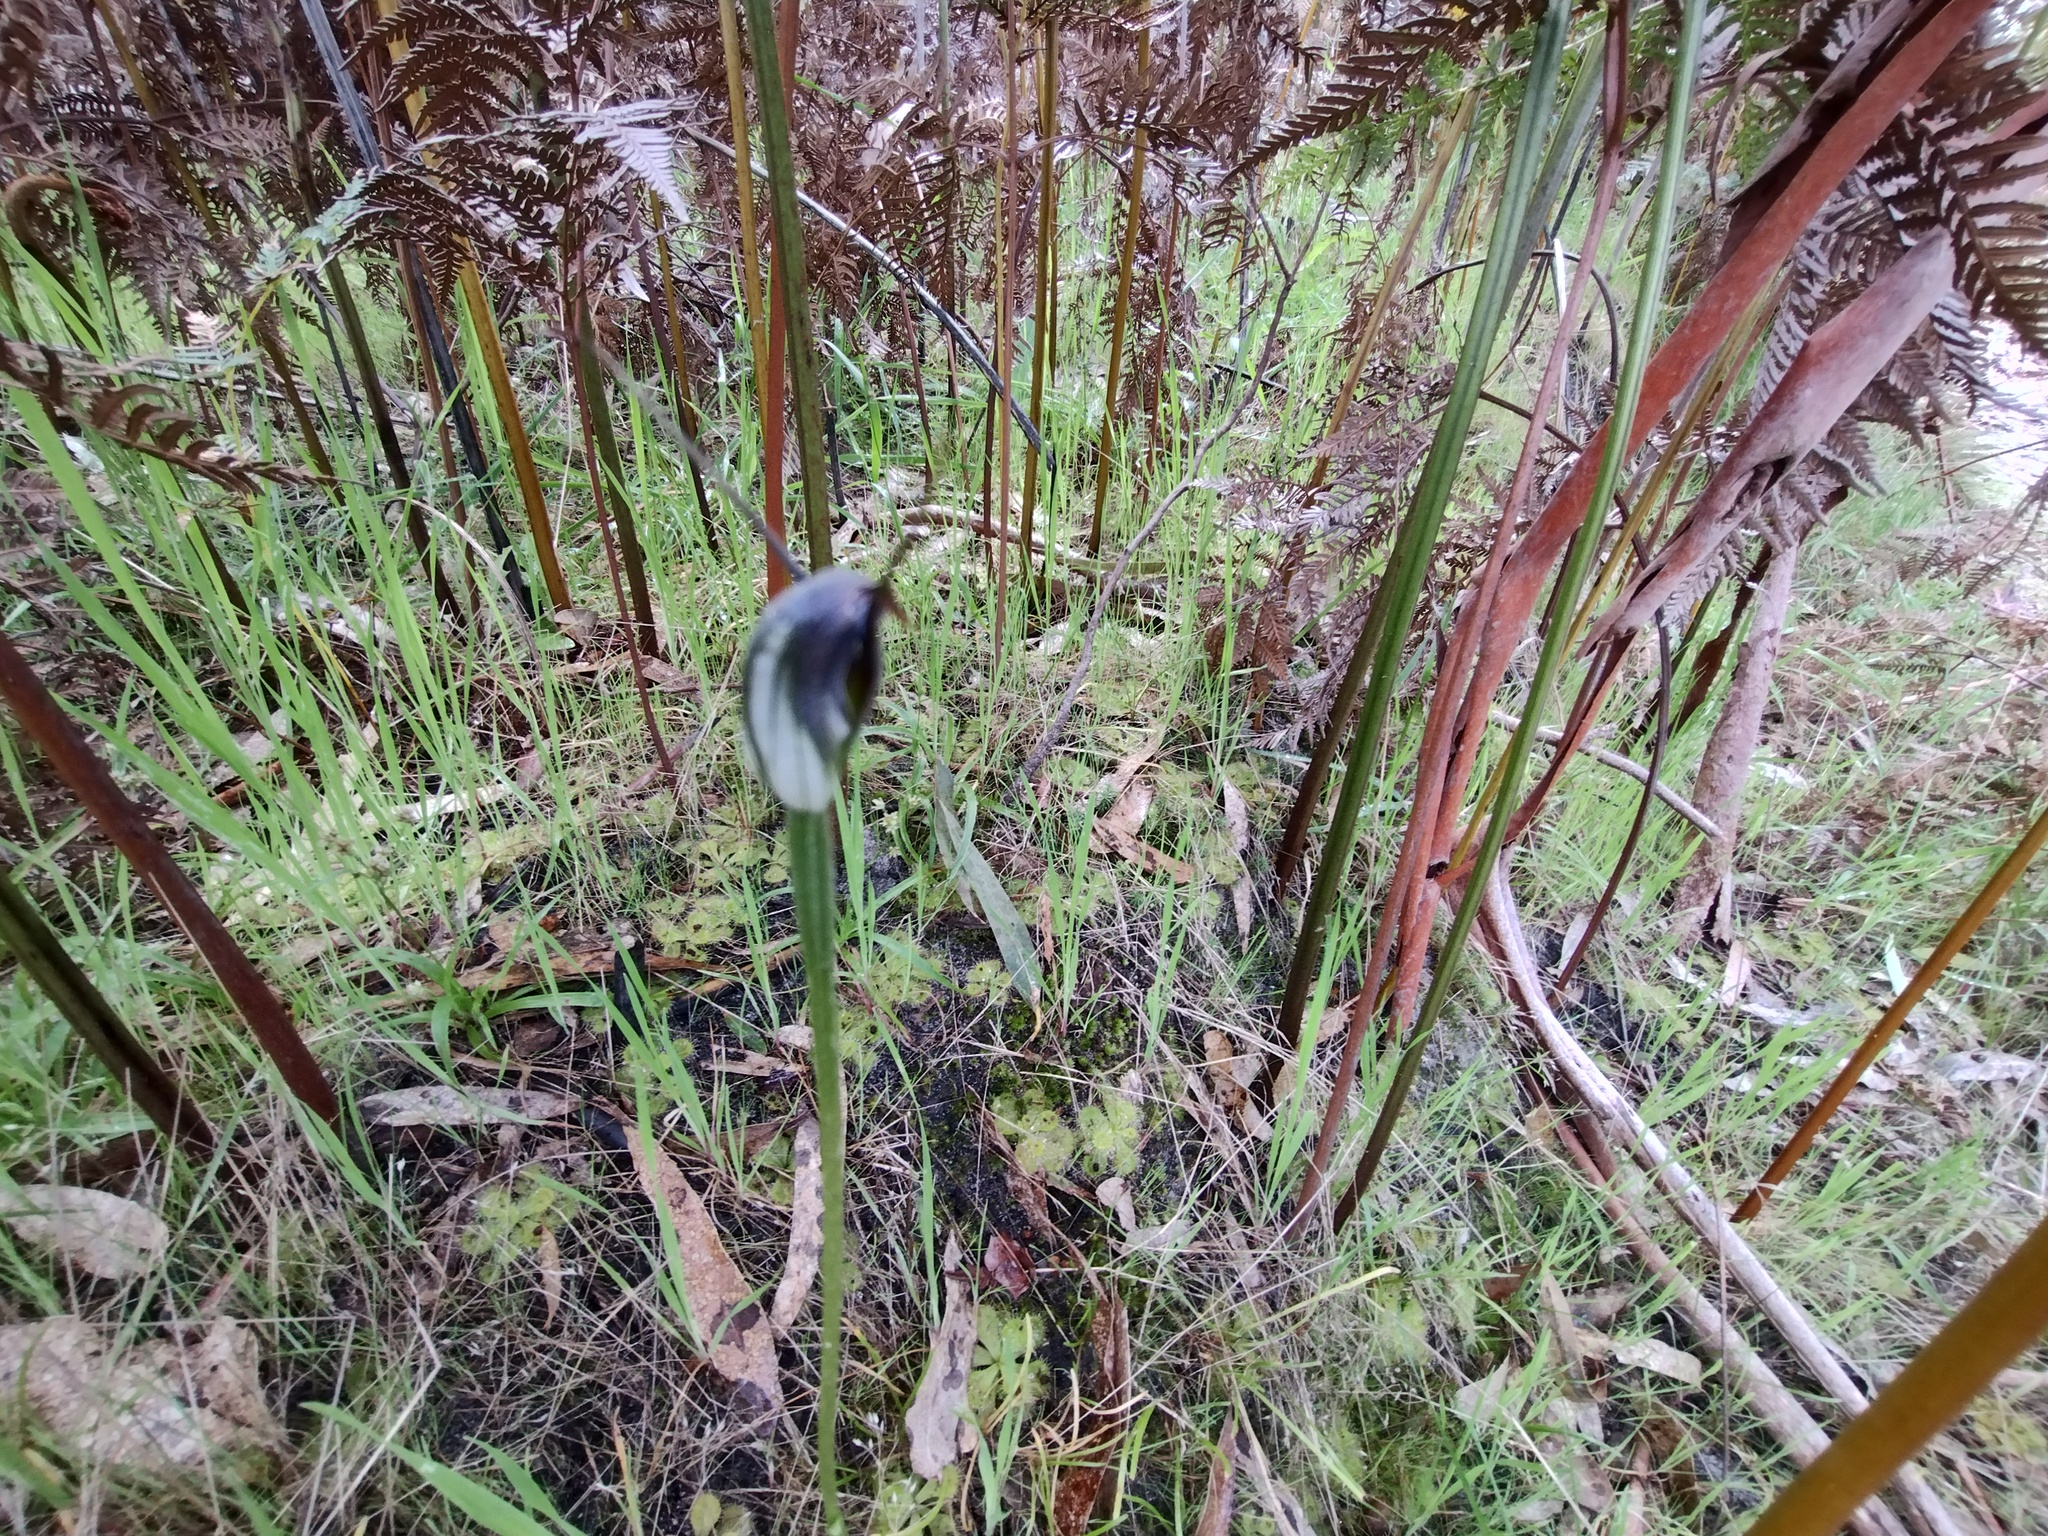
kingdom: Plantae
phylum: Tracheophyta
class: Liliopsida
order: Asparagales
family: Orchidaceae
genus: Pterostylis
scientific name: Pterostylis pedunculata
